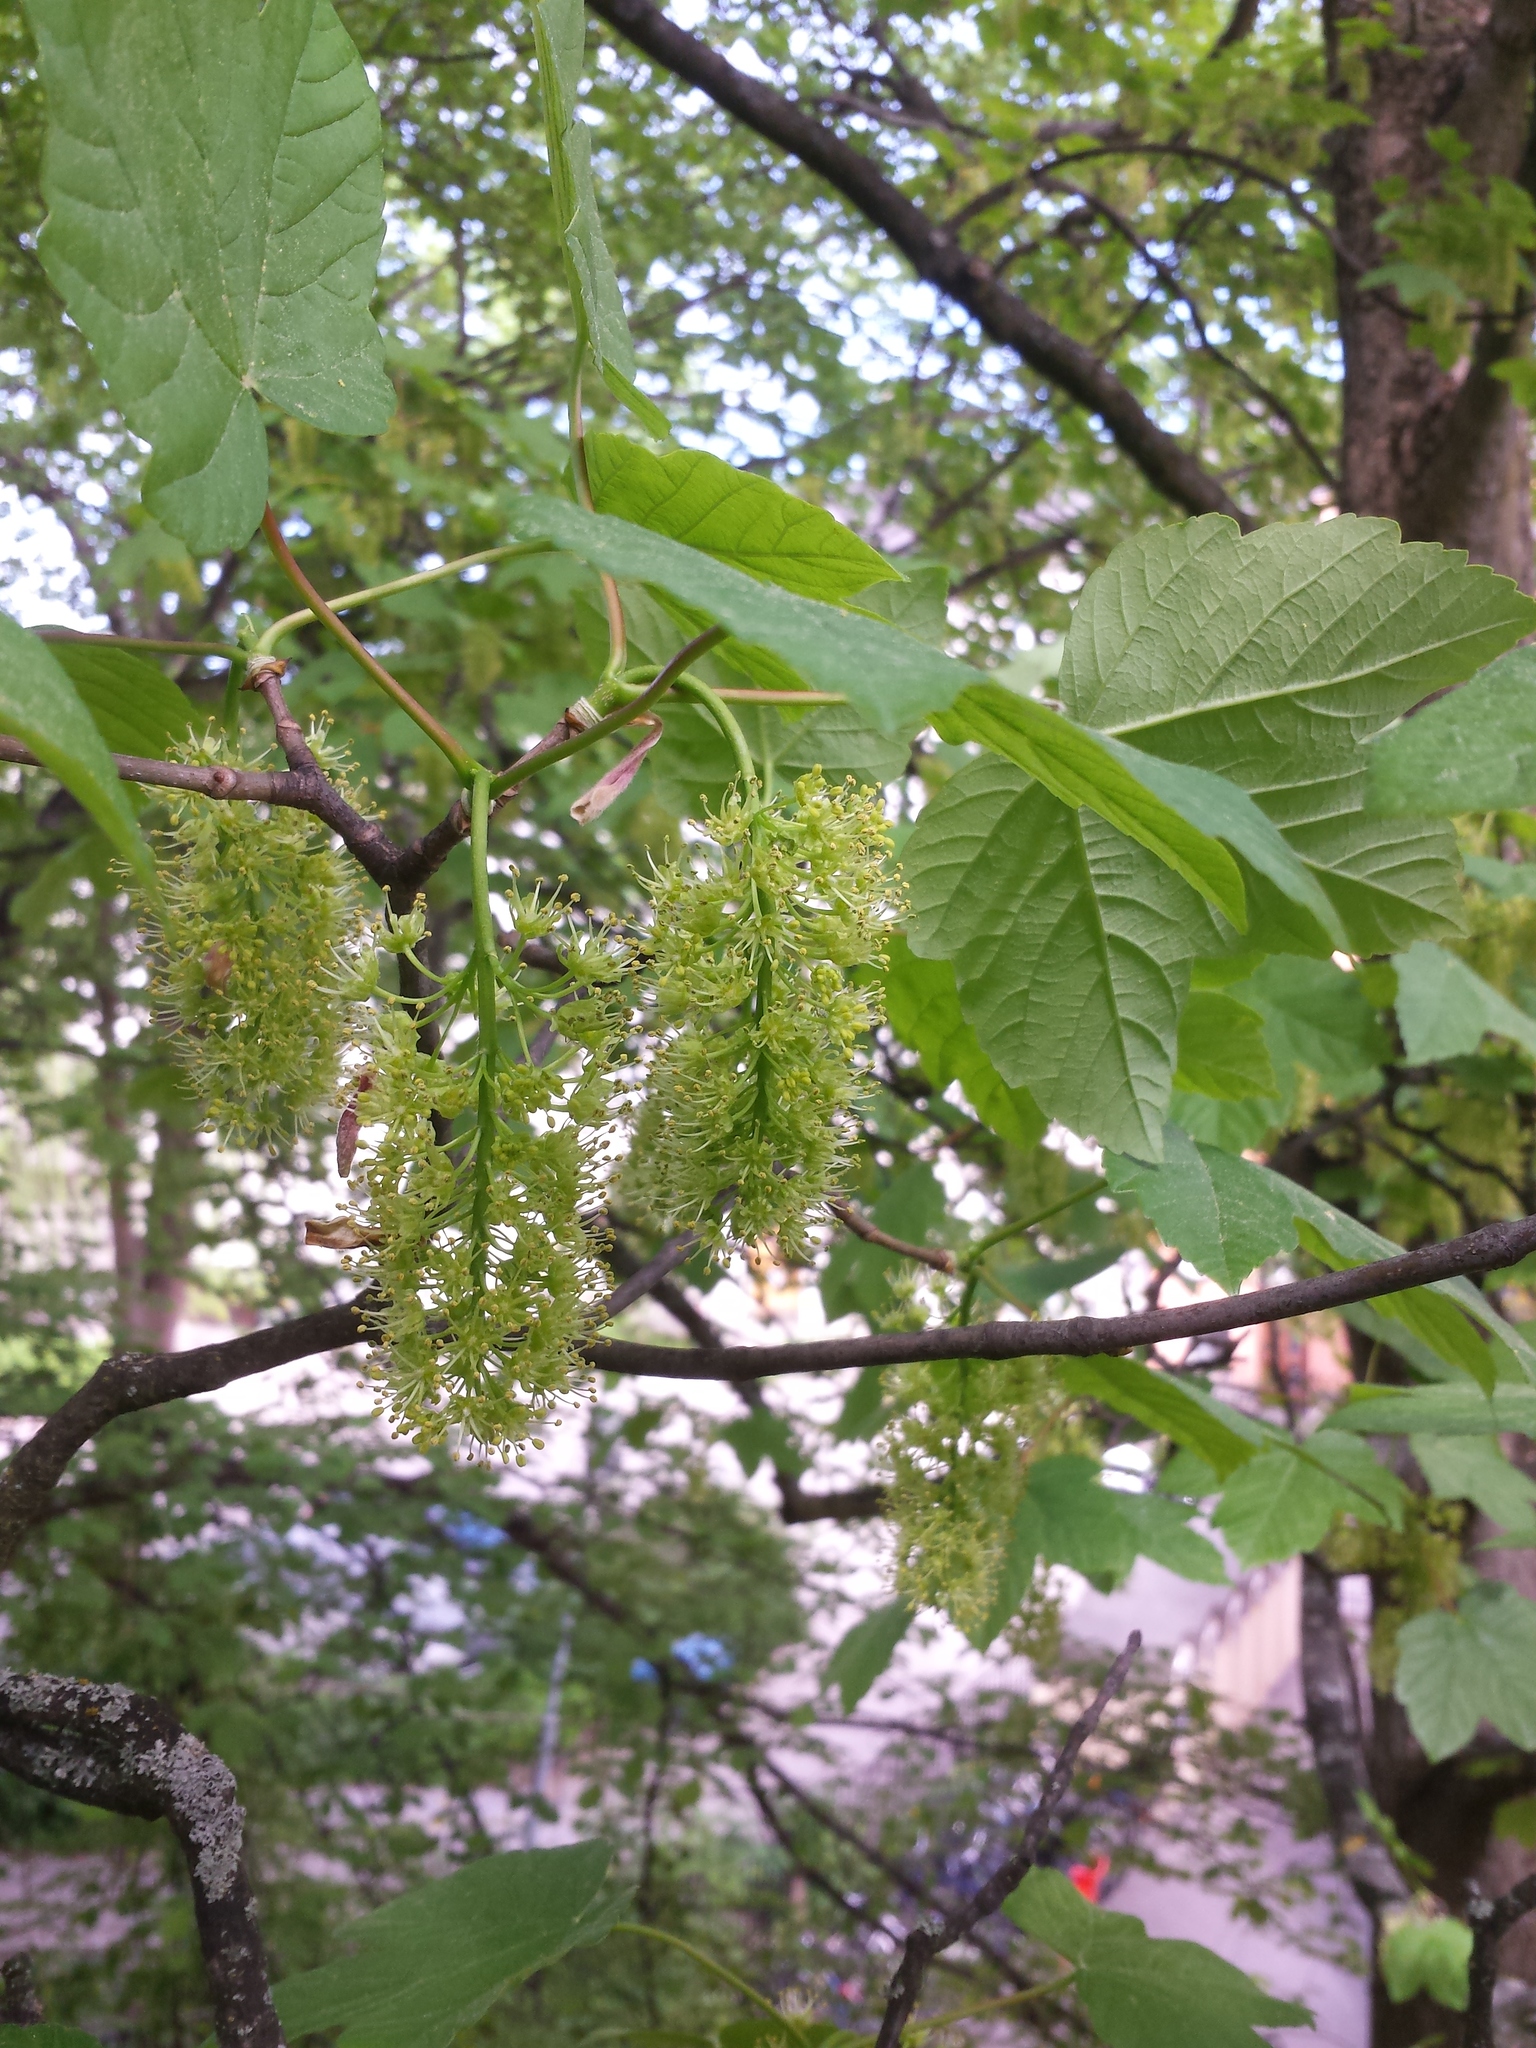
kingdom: Plantae
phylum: Tracheophyta
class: Magnoliopsida
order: Sapindales
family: Sapindaceae
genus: Acer
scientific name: Acer pseudoplatanus
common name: Sycamore
